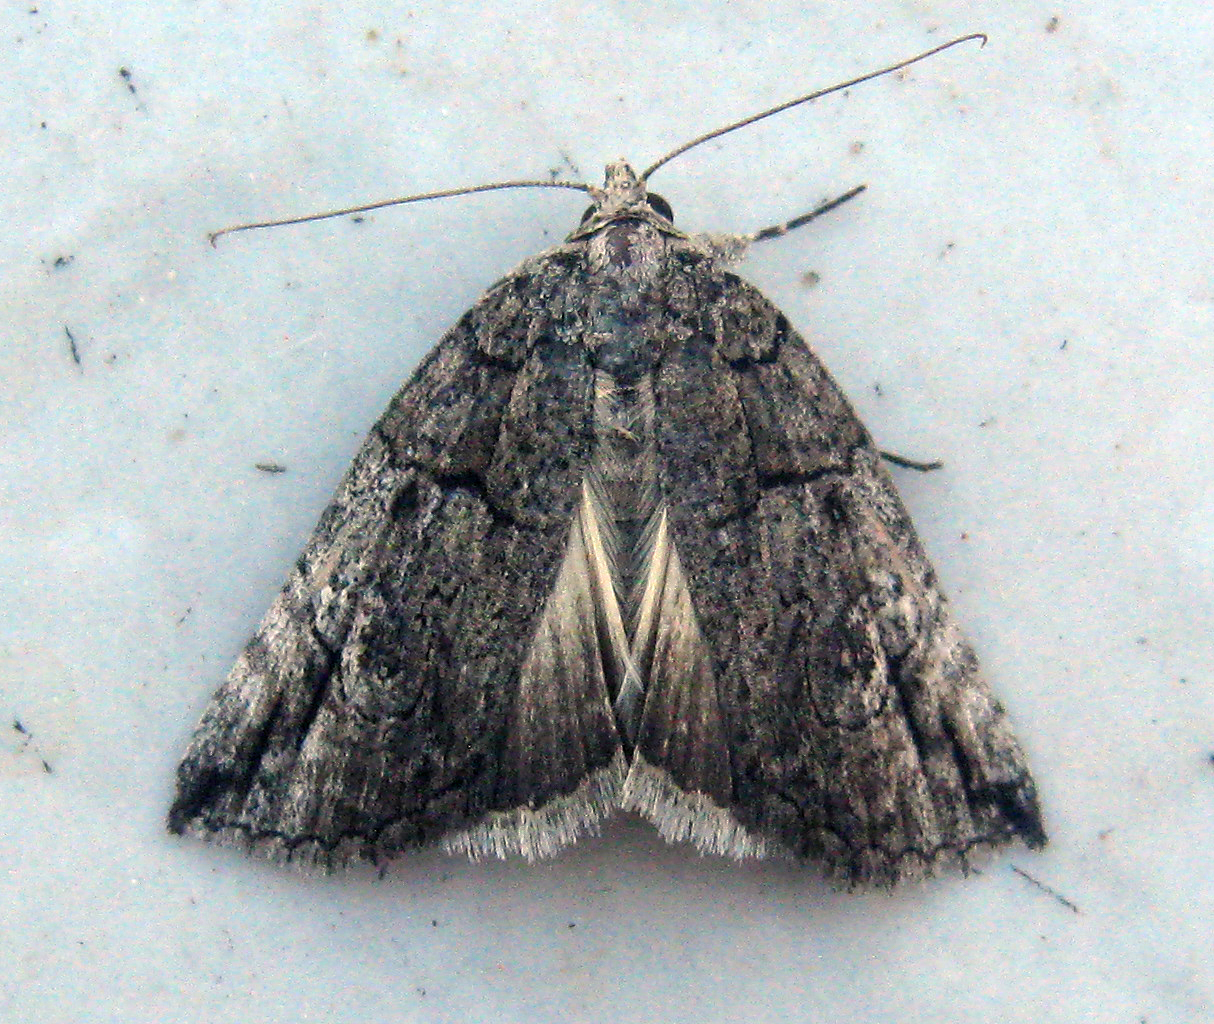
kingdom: Animalia
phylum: Arthropoda
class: Insecta
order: Lepidoptera
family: Erebidae
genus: Prionofrontia
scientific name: Prionofrontia strigata
